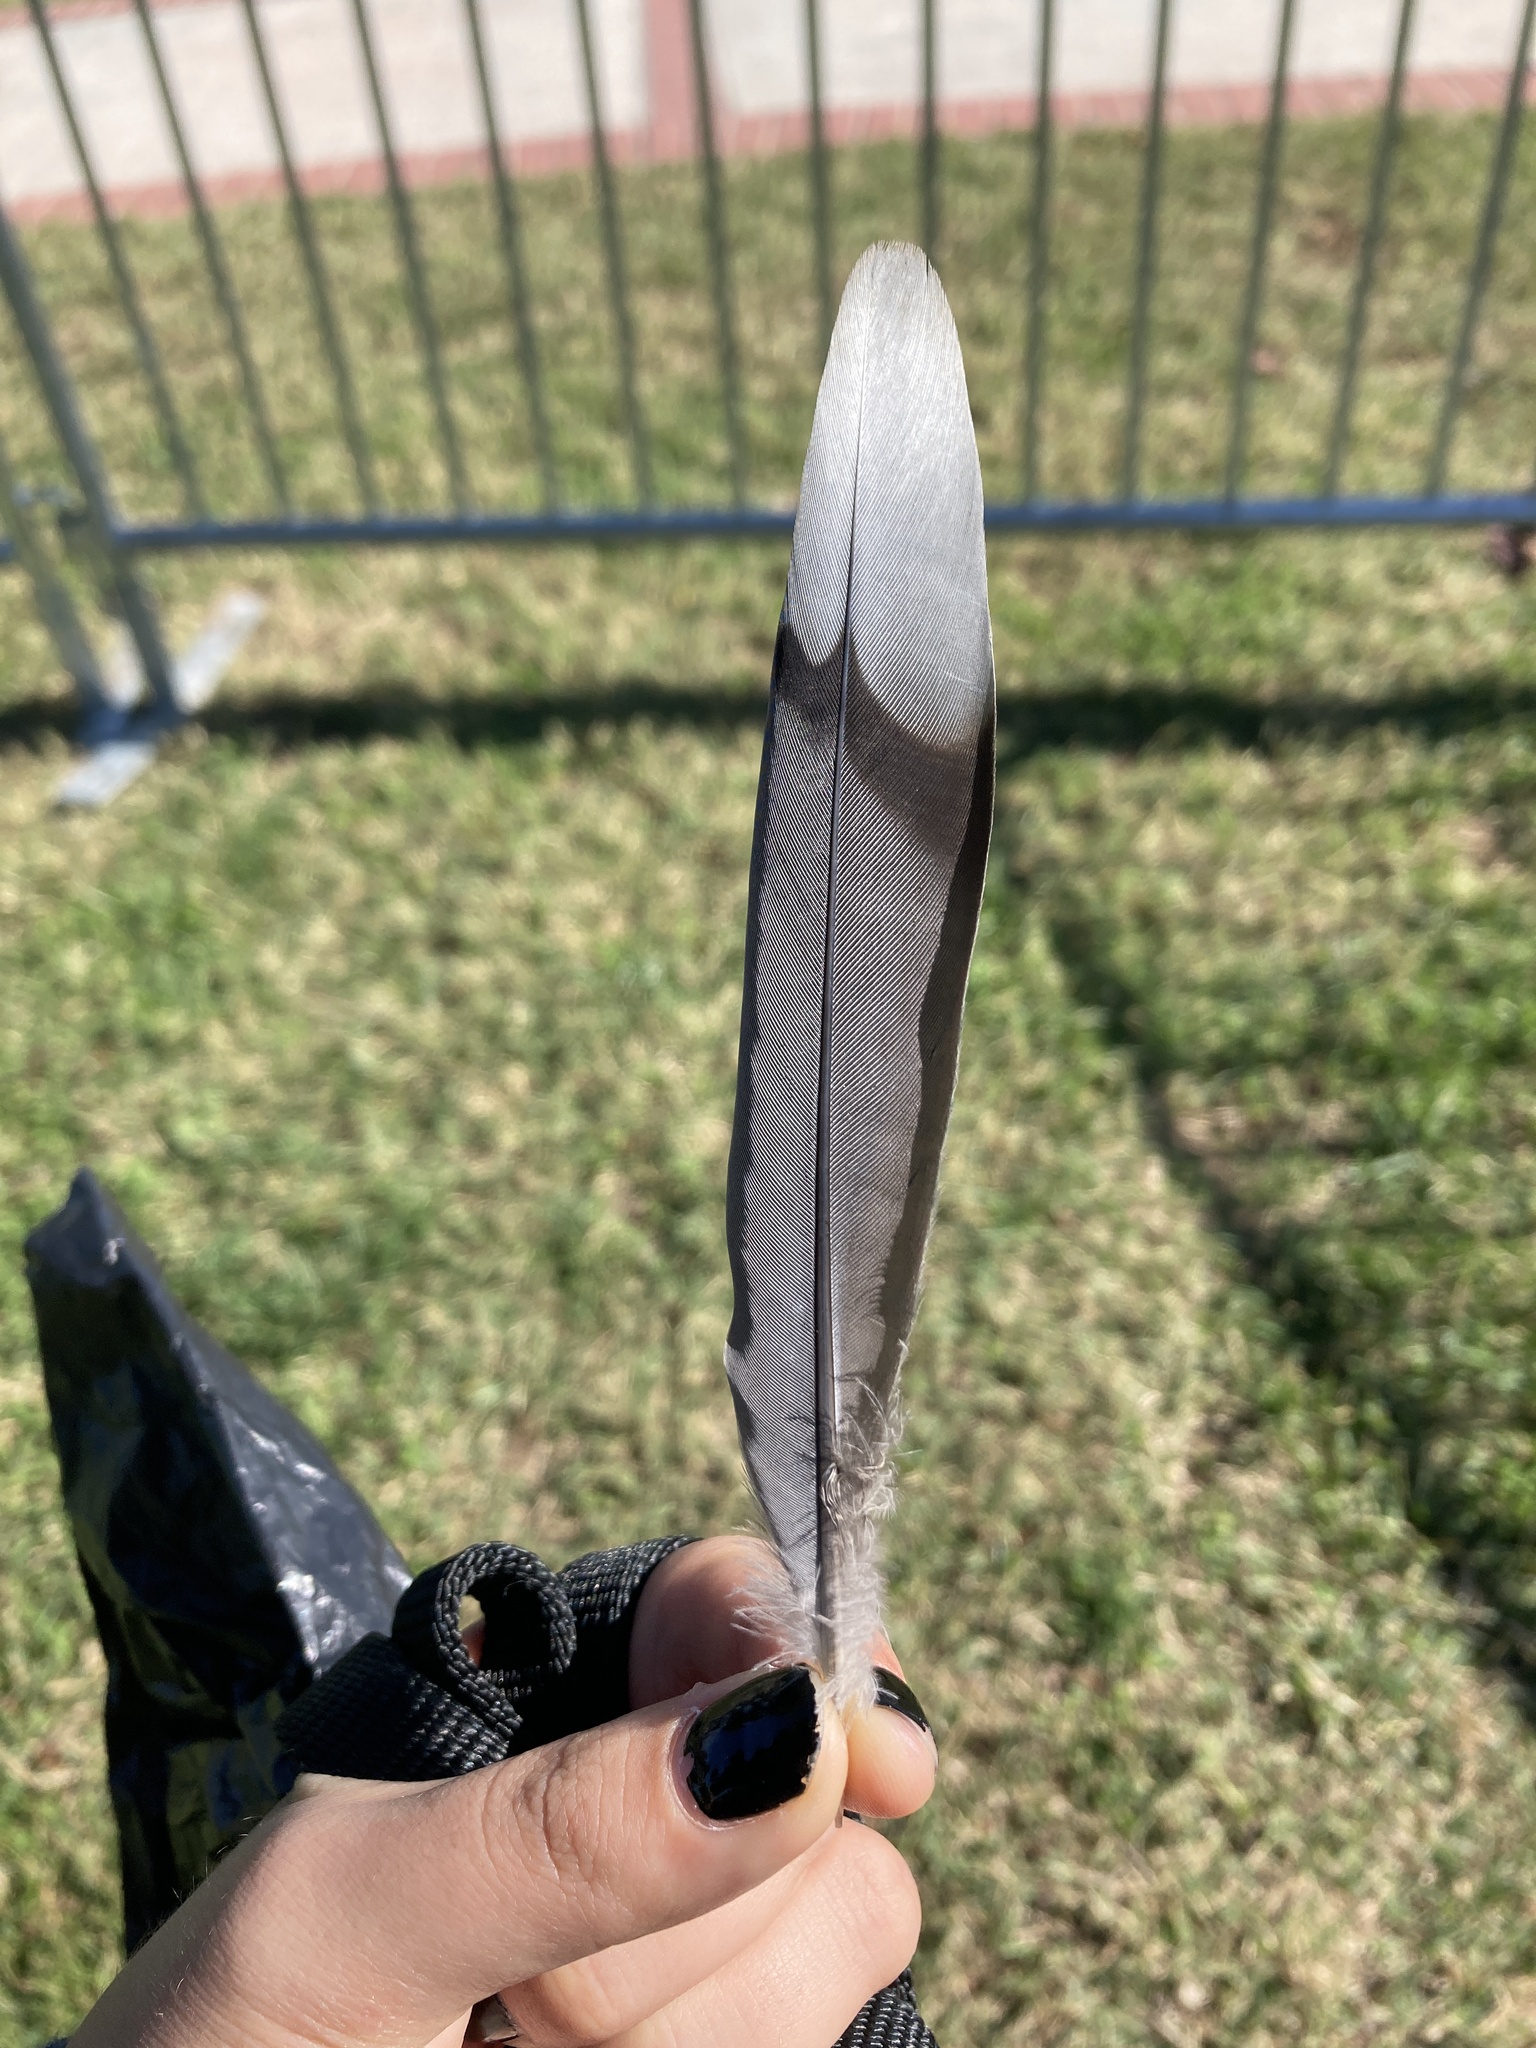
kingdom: Animalia
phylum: Chordata
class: Aves
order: Columbiformes
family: Columbidae
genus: Zenaida
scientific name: Zenaida macroura
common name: Mourning dove
